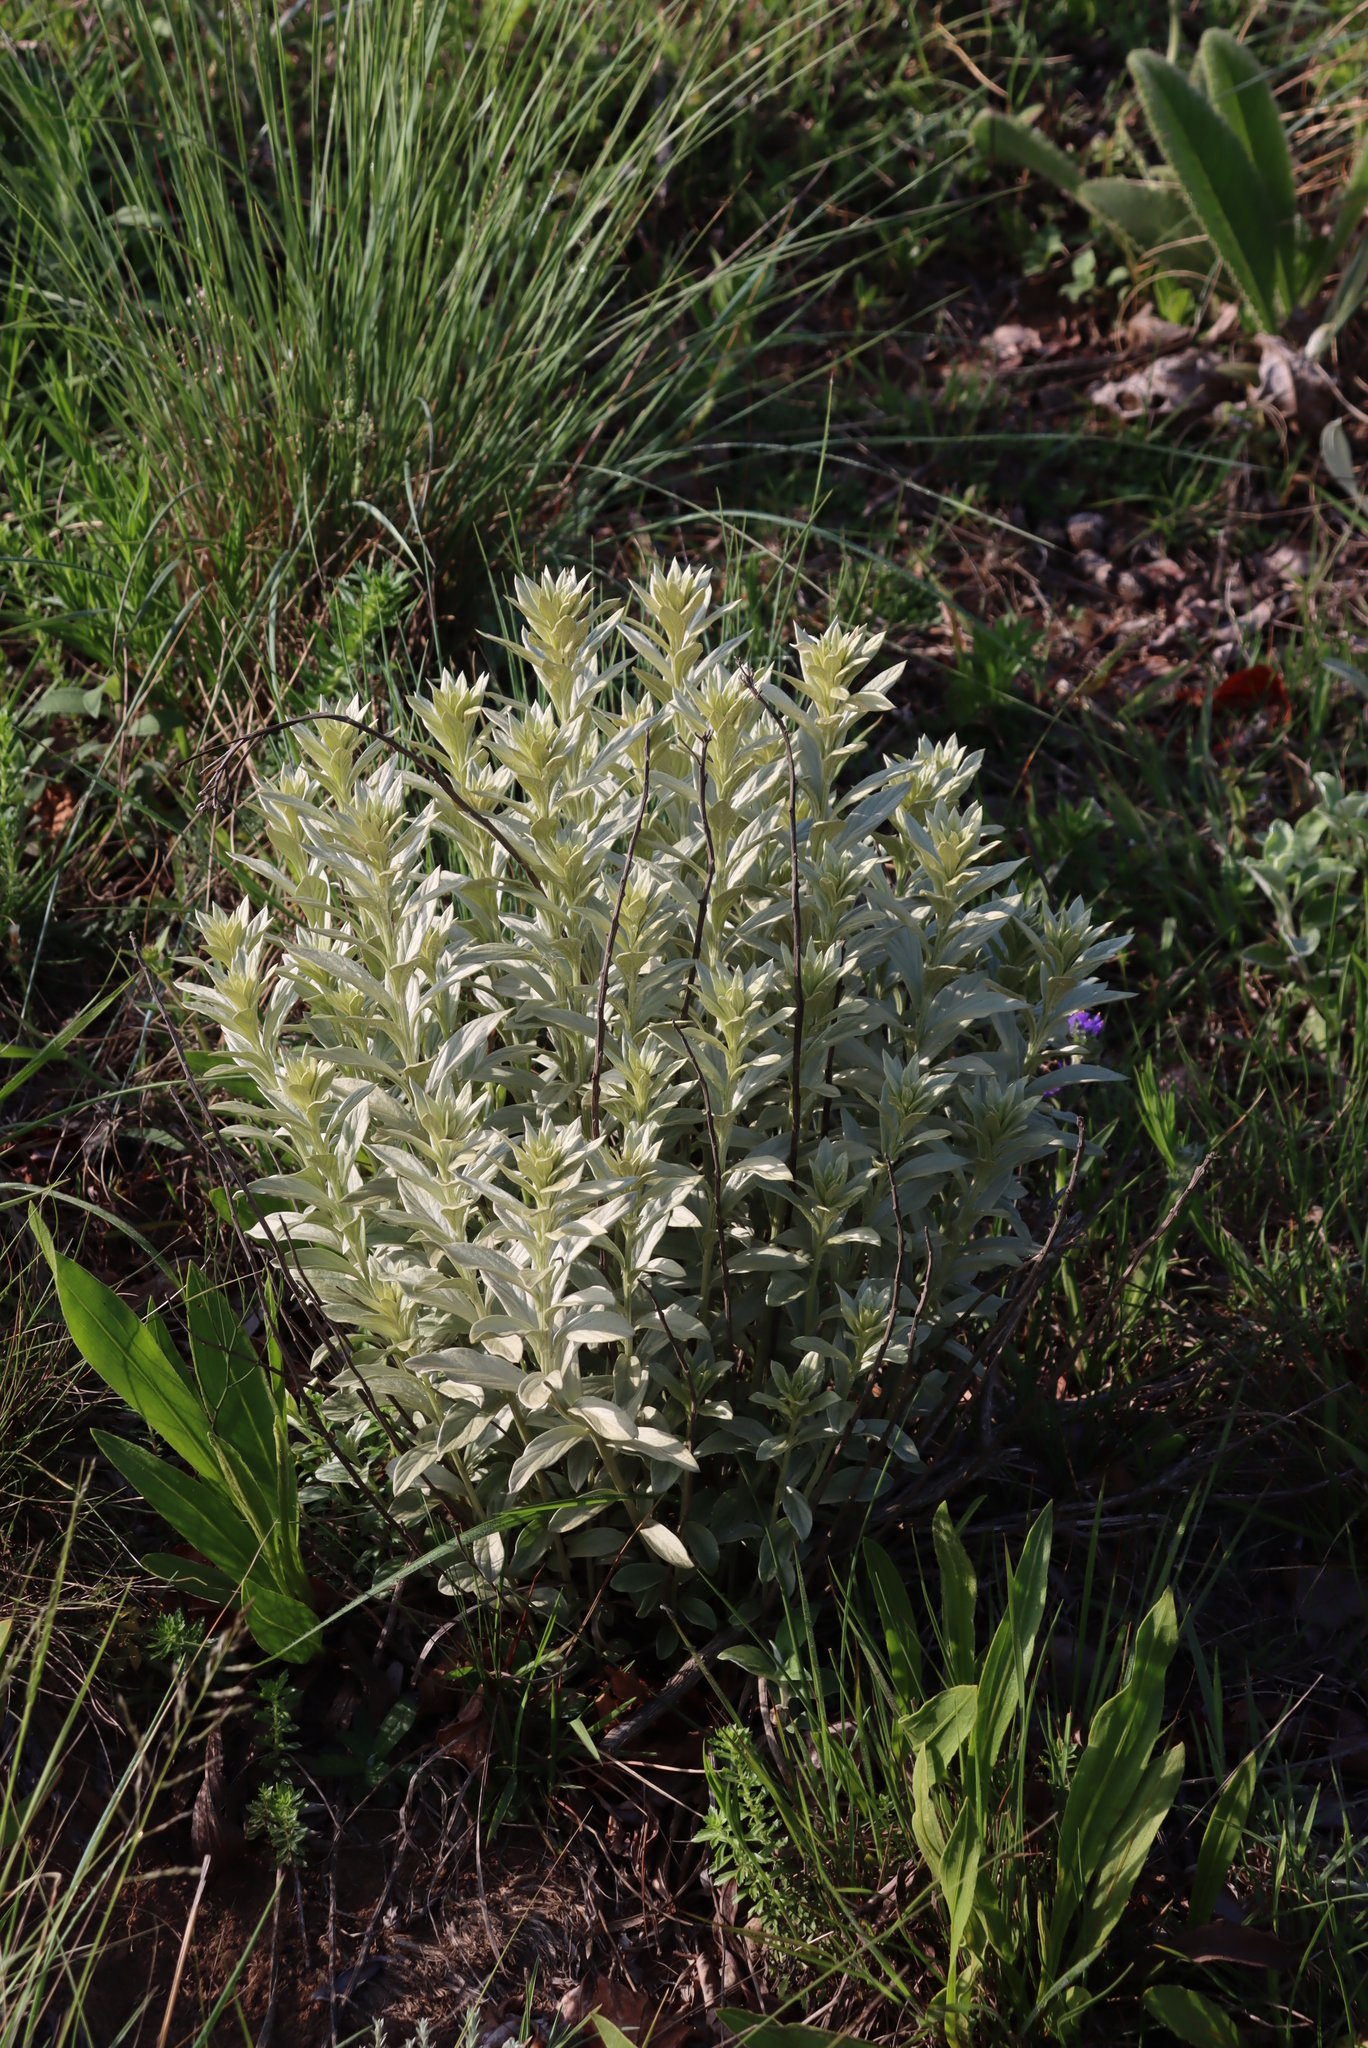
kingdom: Plantae
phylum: Tracheophyta
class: Magnoliopsida
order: Asterales
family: Asteraceae
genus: Hilliardiella
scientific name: Hilliardiella aristata
